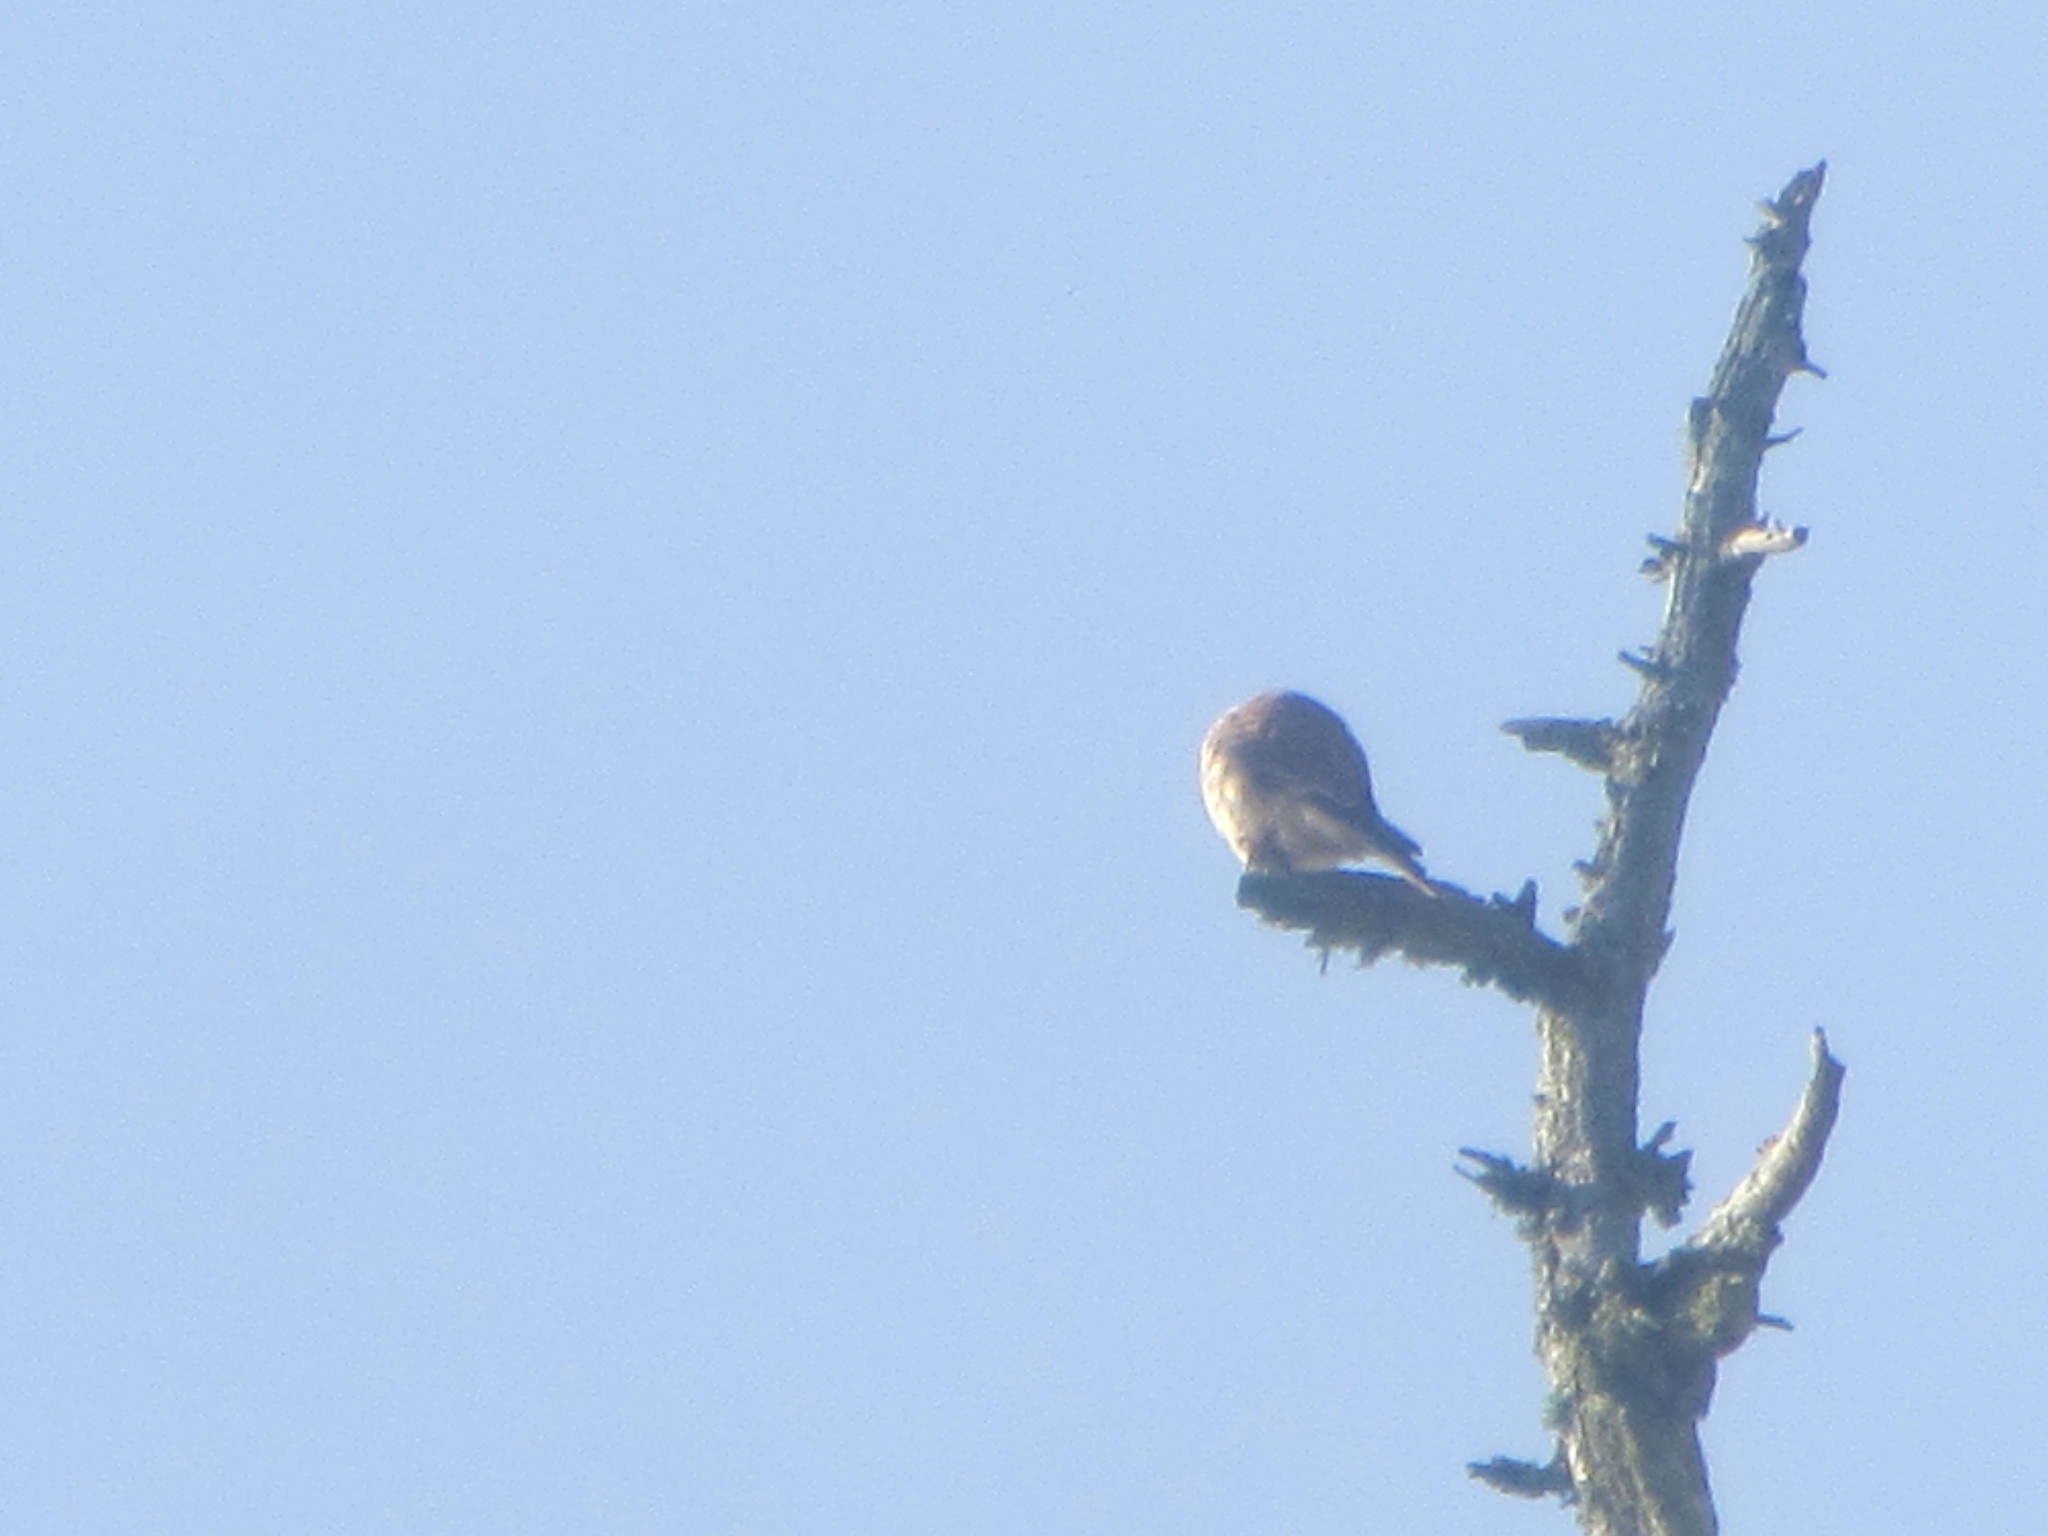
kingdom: Animalia
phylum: Chordata
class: Aves
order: Falconiformes
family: Falconidae
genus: Falco
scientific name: Falco sparverius
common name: American kestrel
